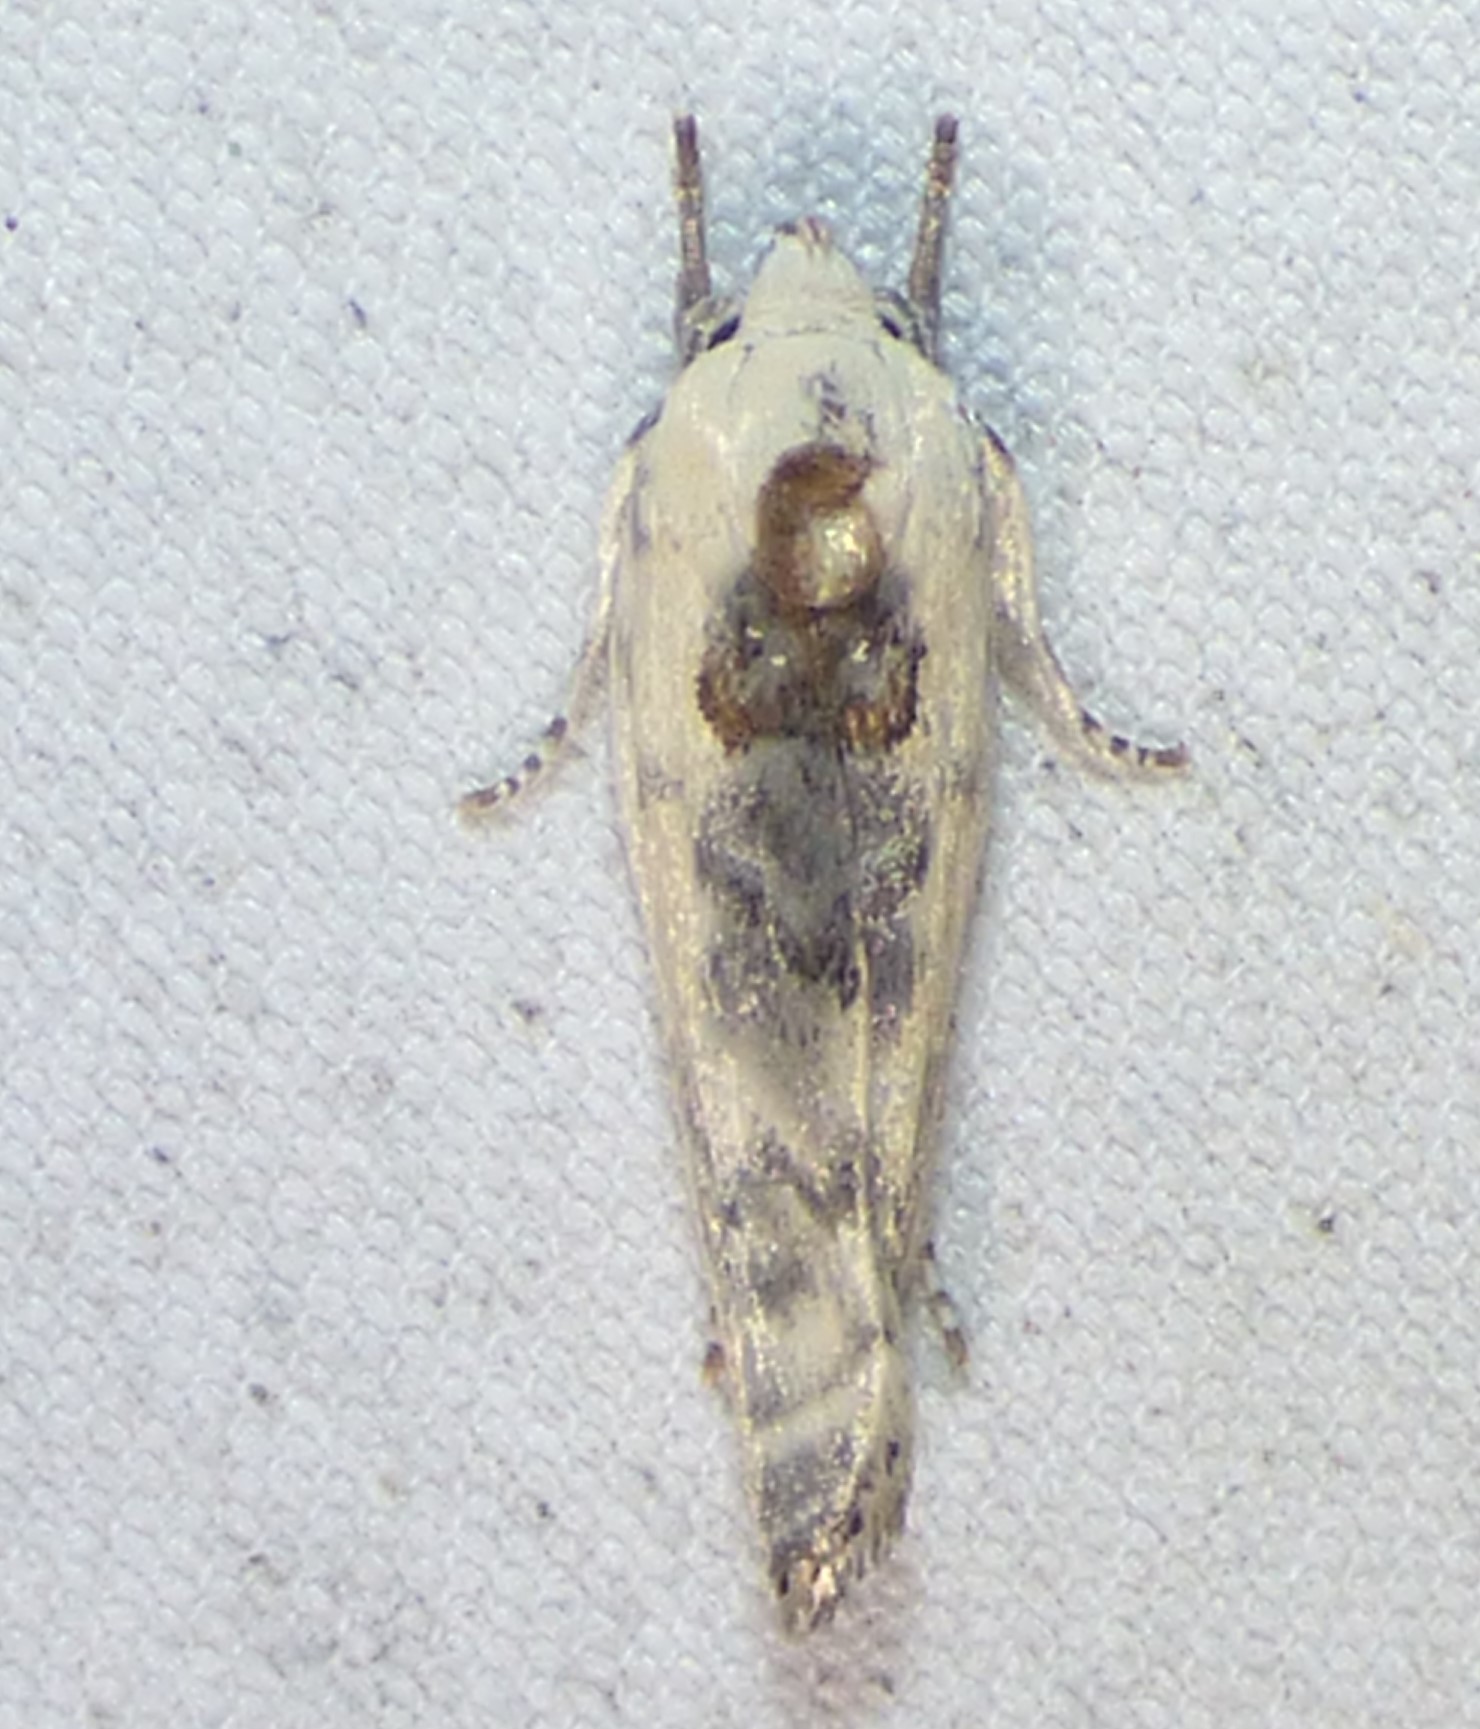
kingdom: Animalia
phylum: Arthropoda
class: Insecta
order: Lepidoptera
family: Depressariidae
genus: Antaeotricha
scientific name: Antaeotricha schlaegeri
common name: Schlaeger's fruitworm moth
